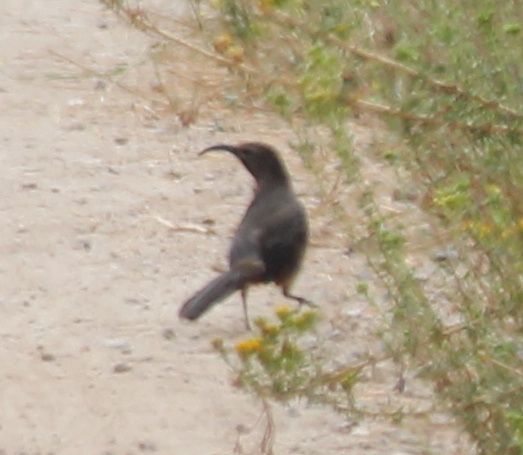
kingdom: Animalia
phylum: Chordata
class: Aves
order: Passeriformes
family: Mimidae
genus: Toxostoma
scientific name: Toxostoma redivivum
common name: California thrasher
